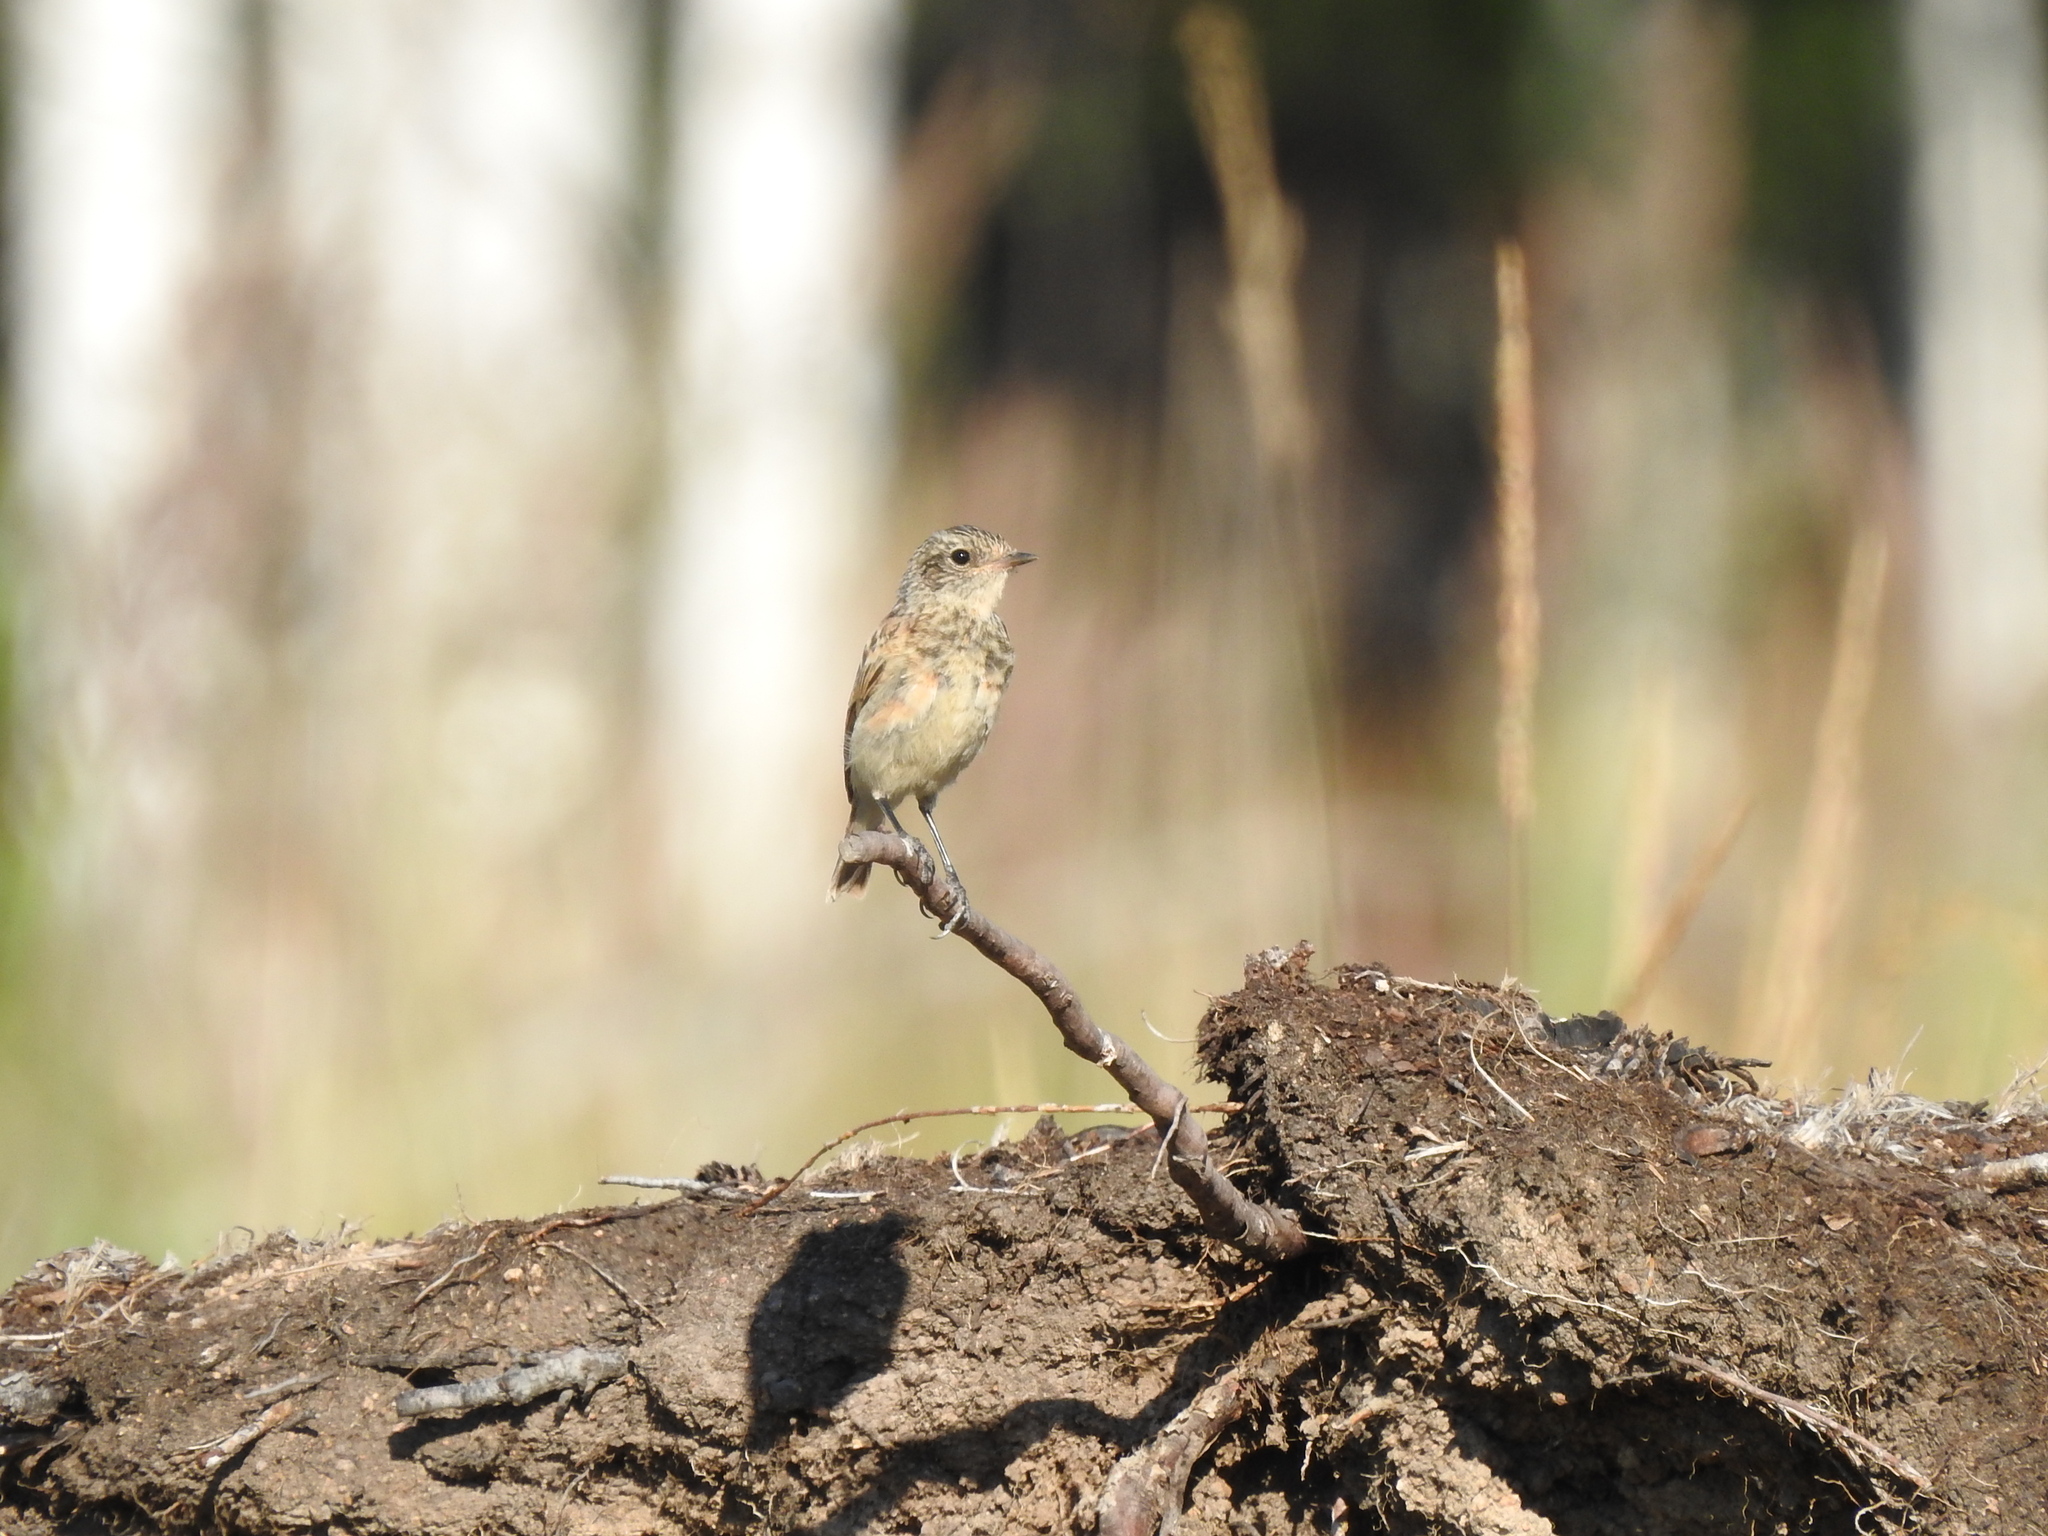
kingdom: Animalia
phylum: Chordata
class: Aves
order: Passeriformes
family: Muscicapidae
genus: Saxicola
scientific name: Saxicola maurus
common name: Siberian stonechat
